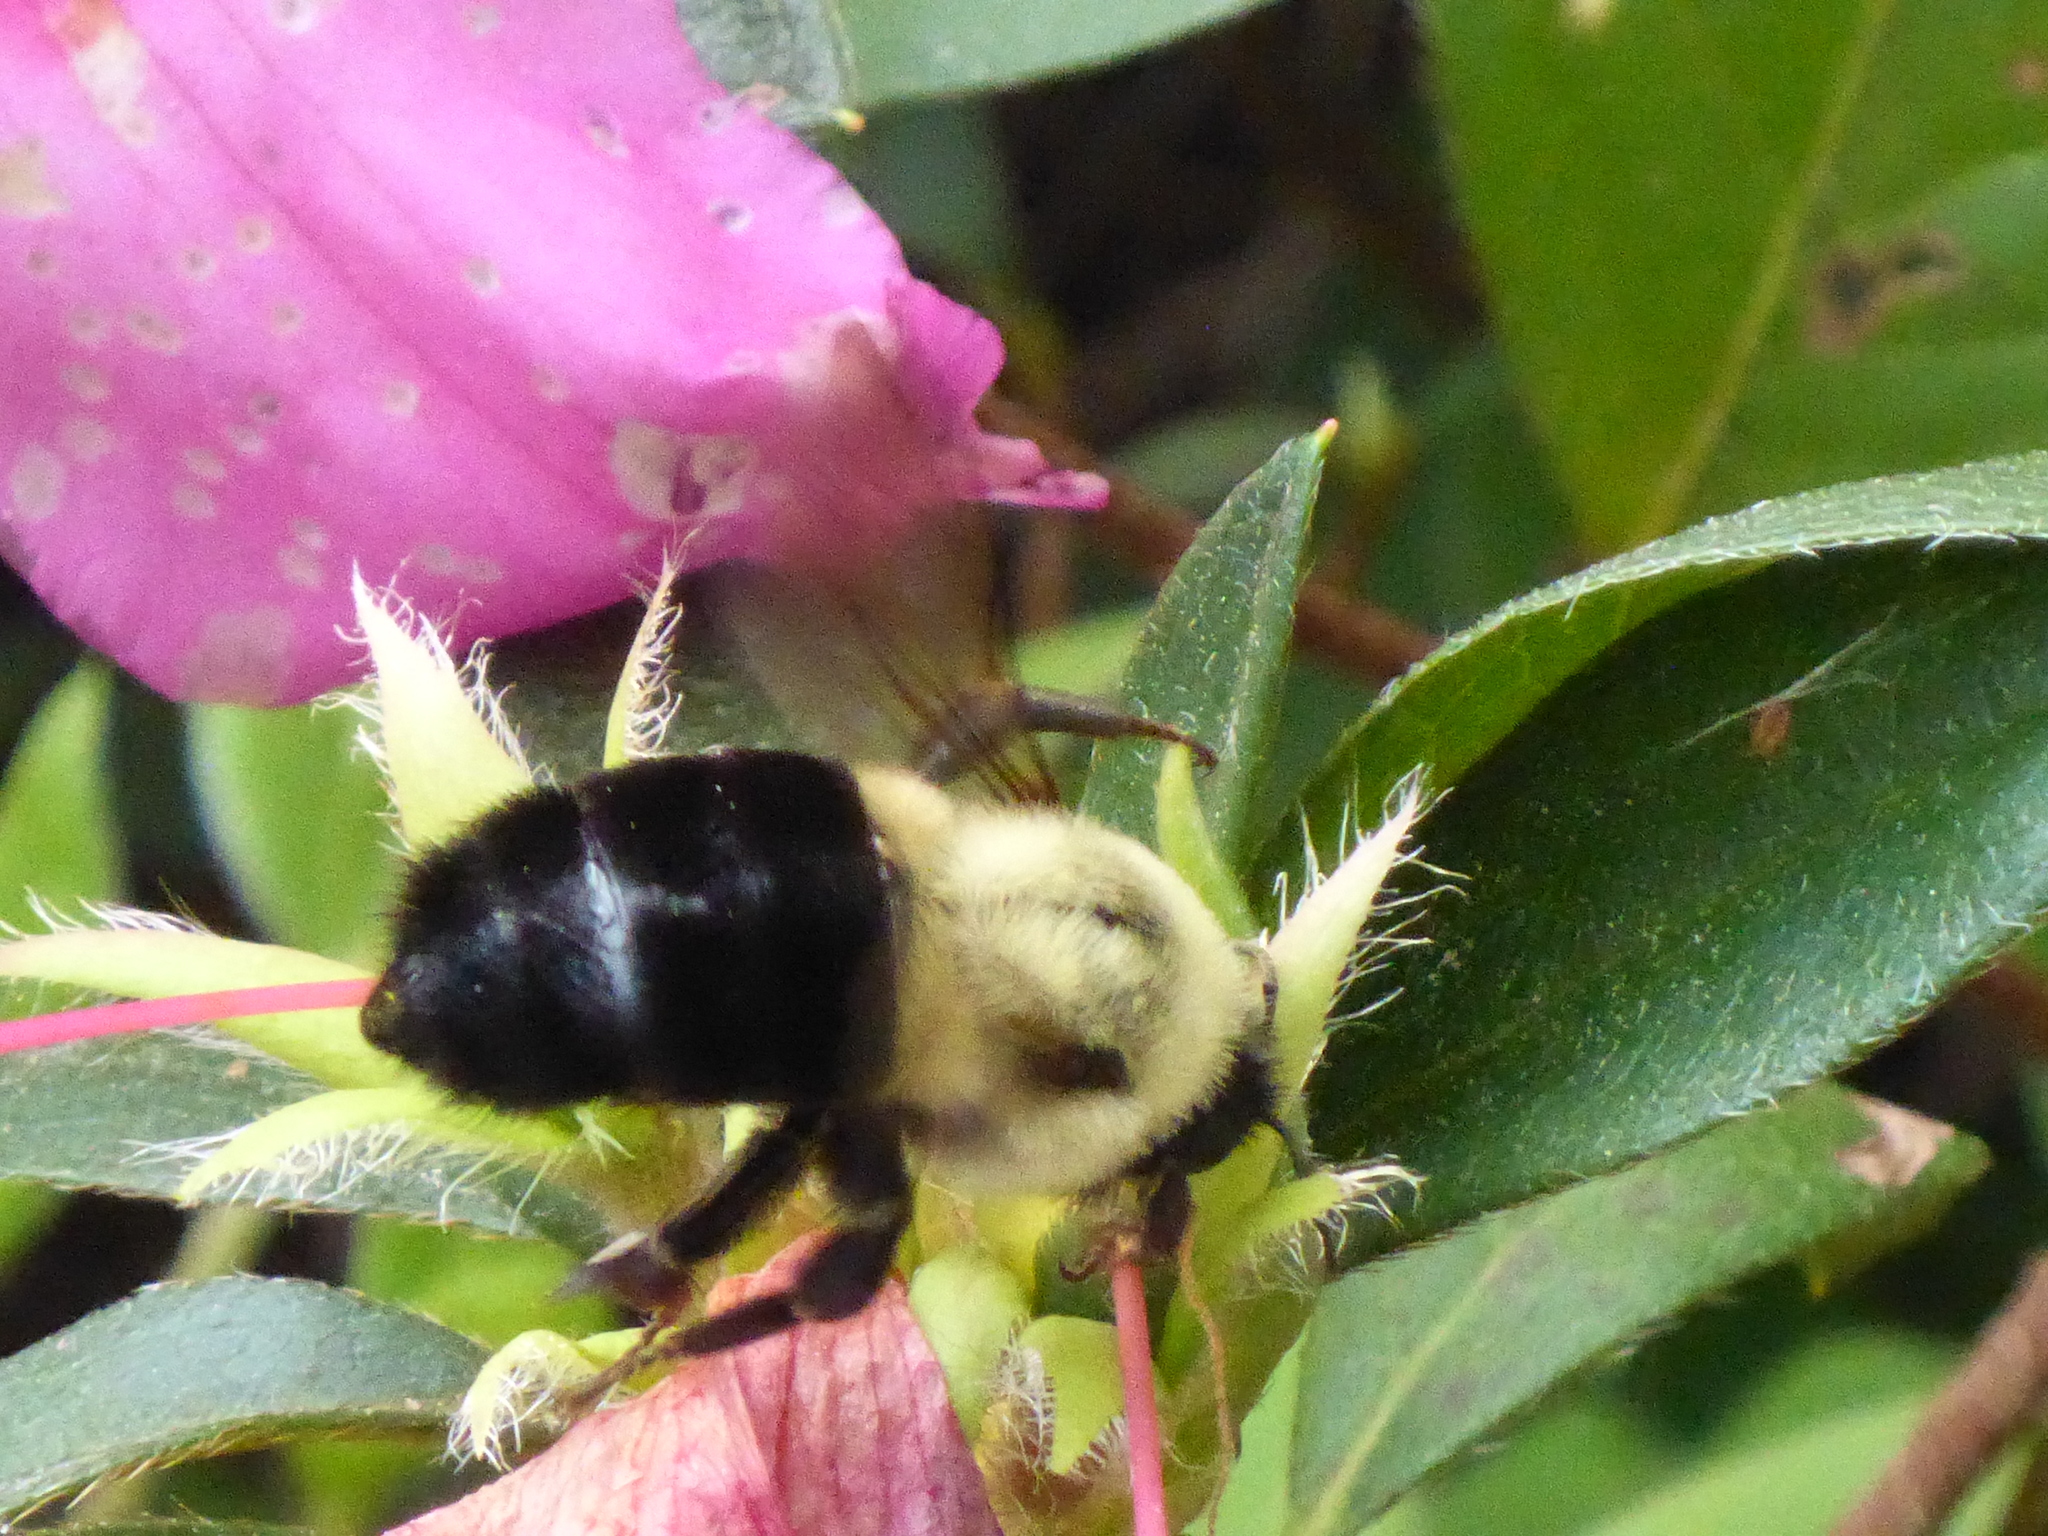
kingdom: Animalia
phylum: Arthropoda
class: Insecta
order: Hymenoptera
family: Apidae
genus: Bombus
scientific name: Bombus impatiens
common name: Common eastern bumble bee
